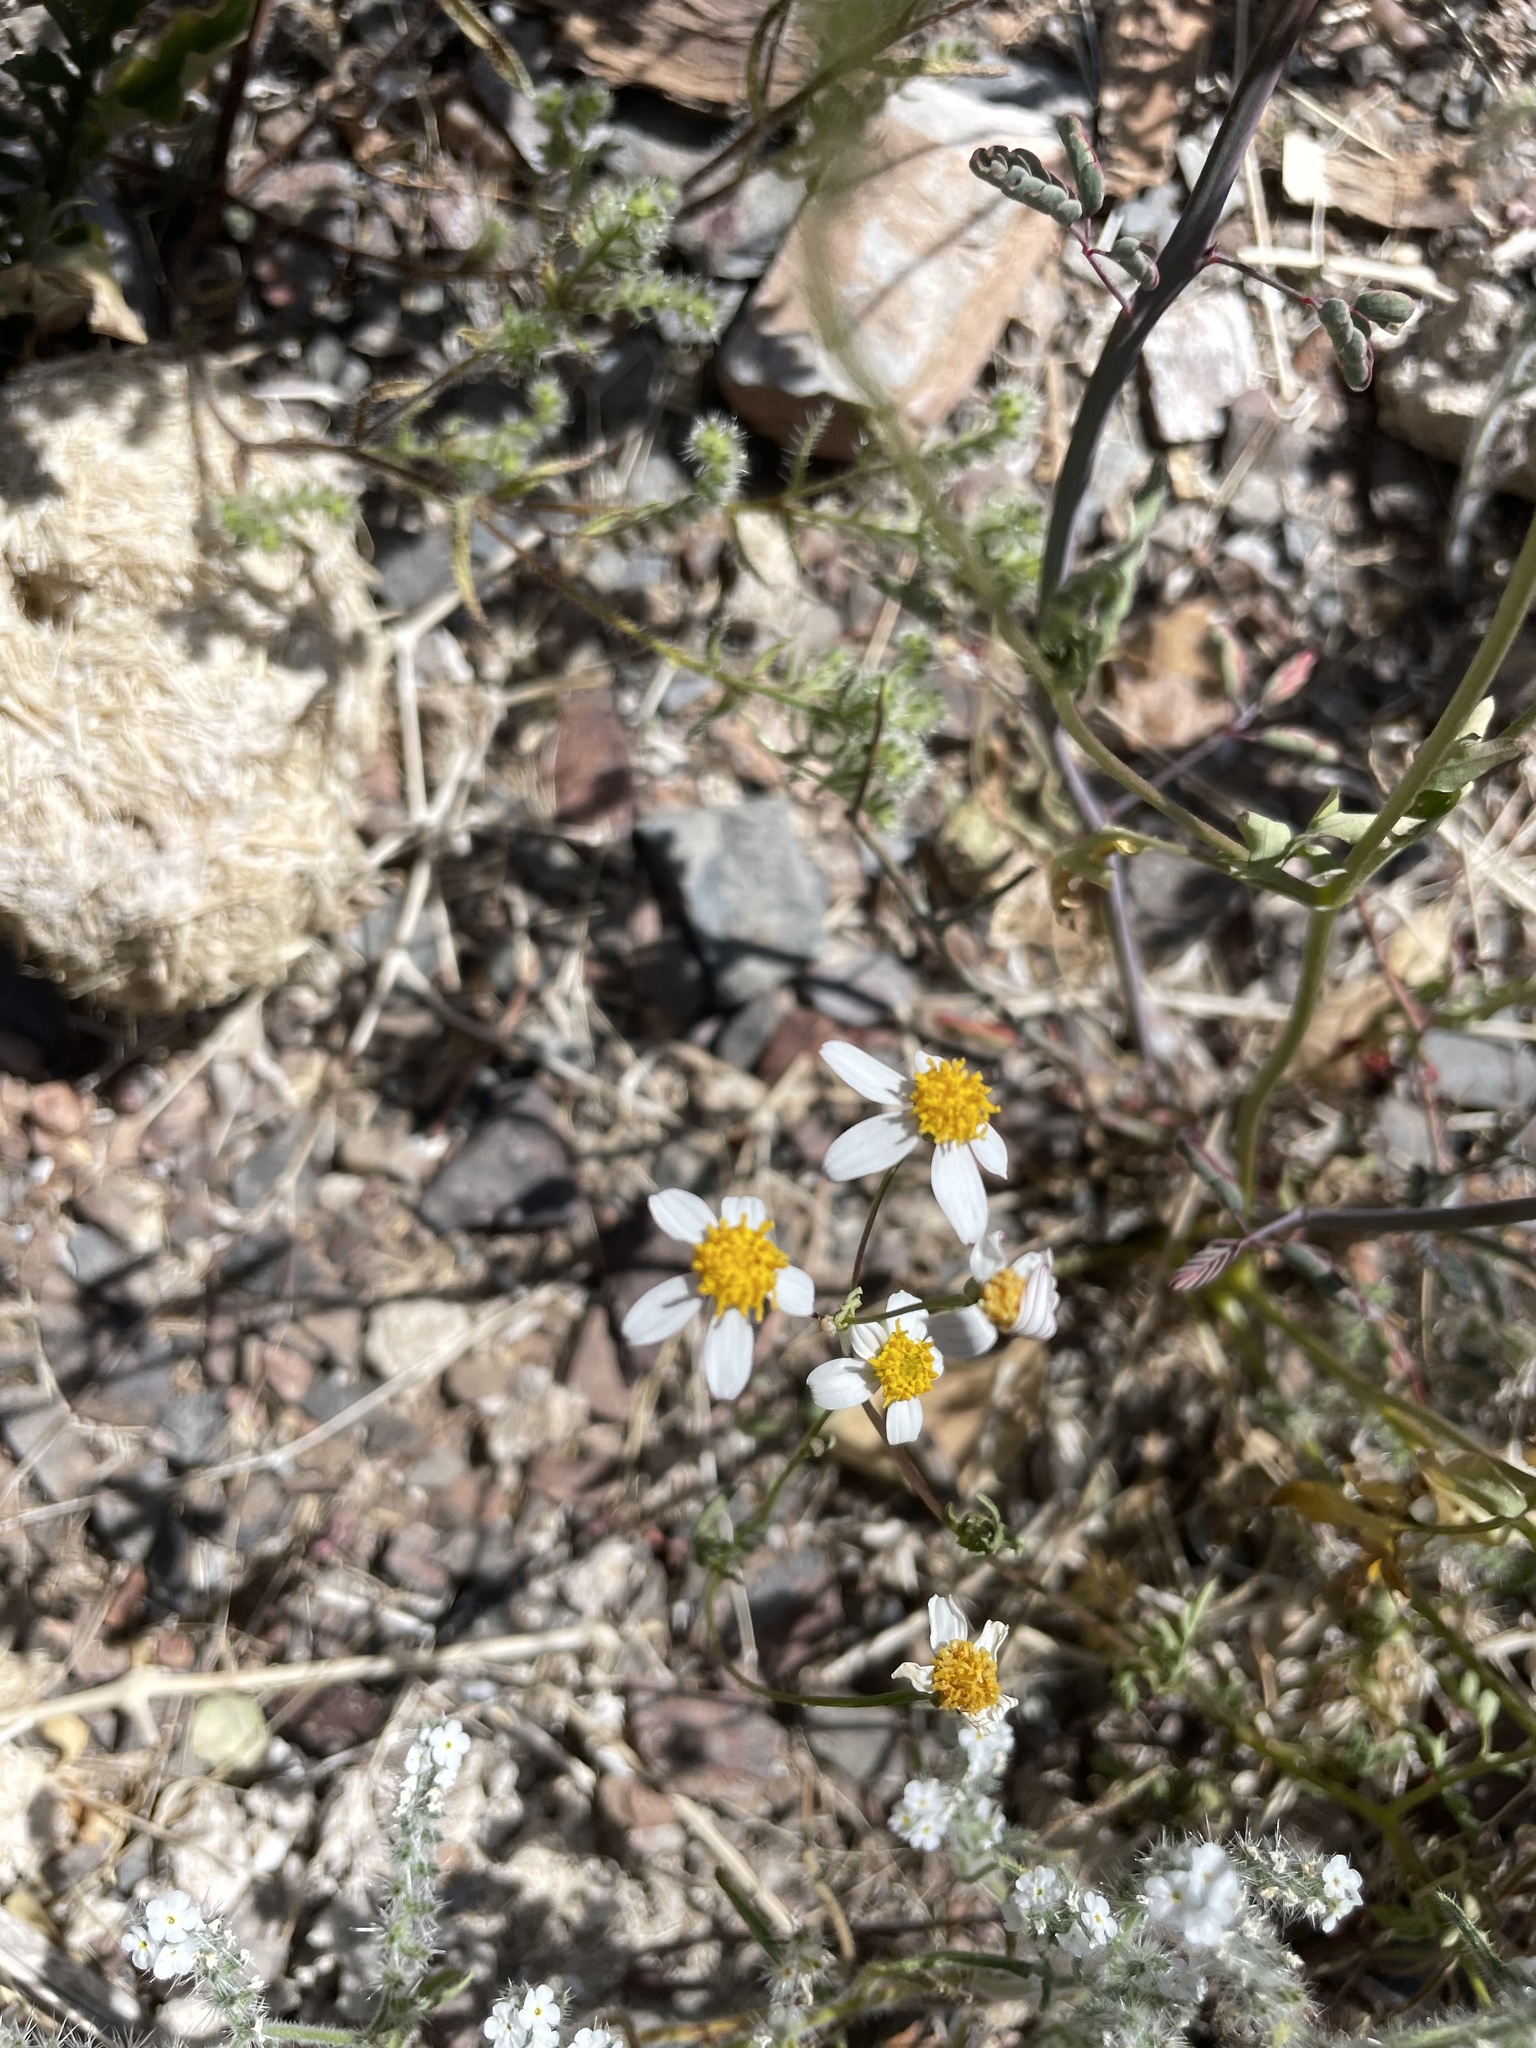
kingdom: Plantae
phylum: Tracheophyta
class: Magnoliopsida
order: Asterales
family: Asteraceae
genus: Coreocarpus
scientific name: Coreocarpus parthenioides
